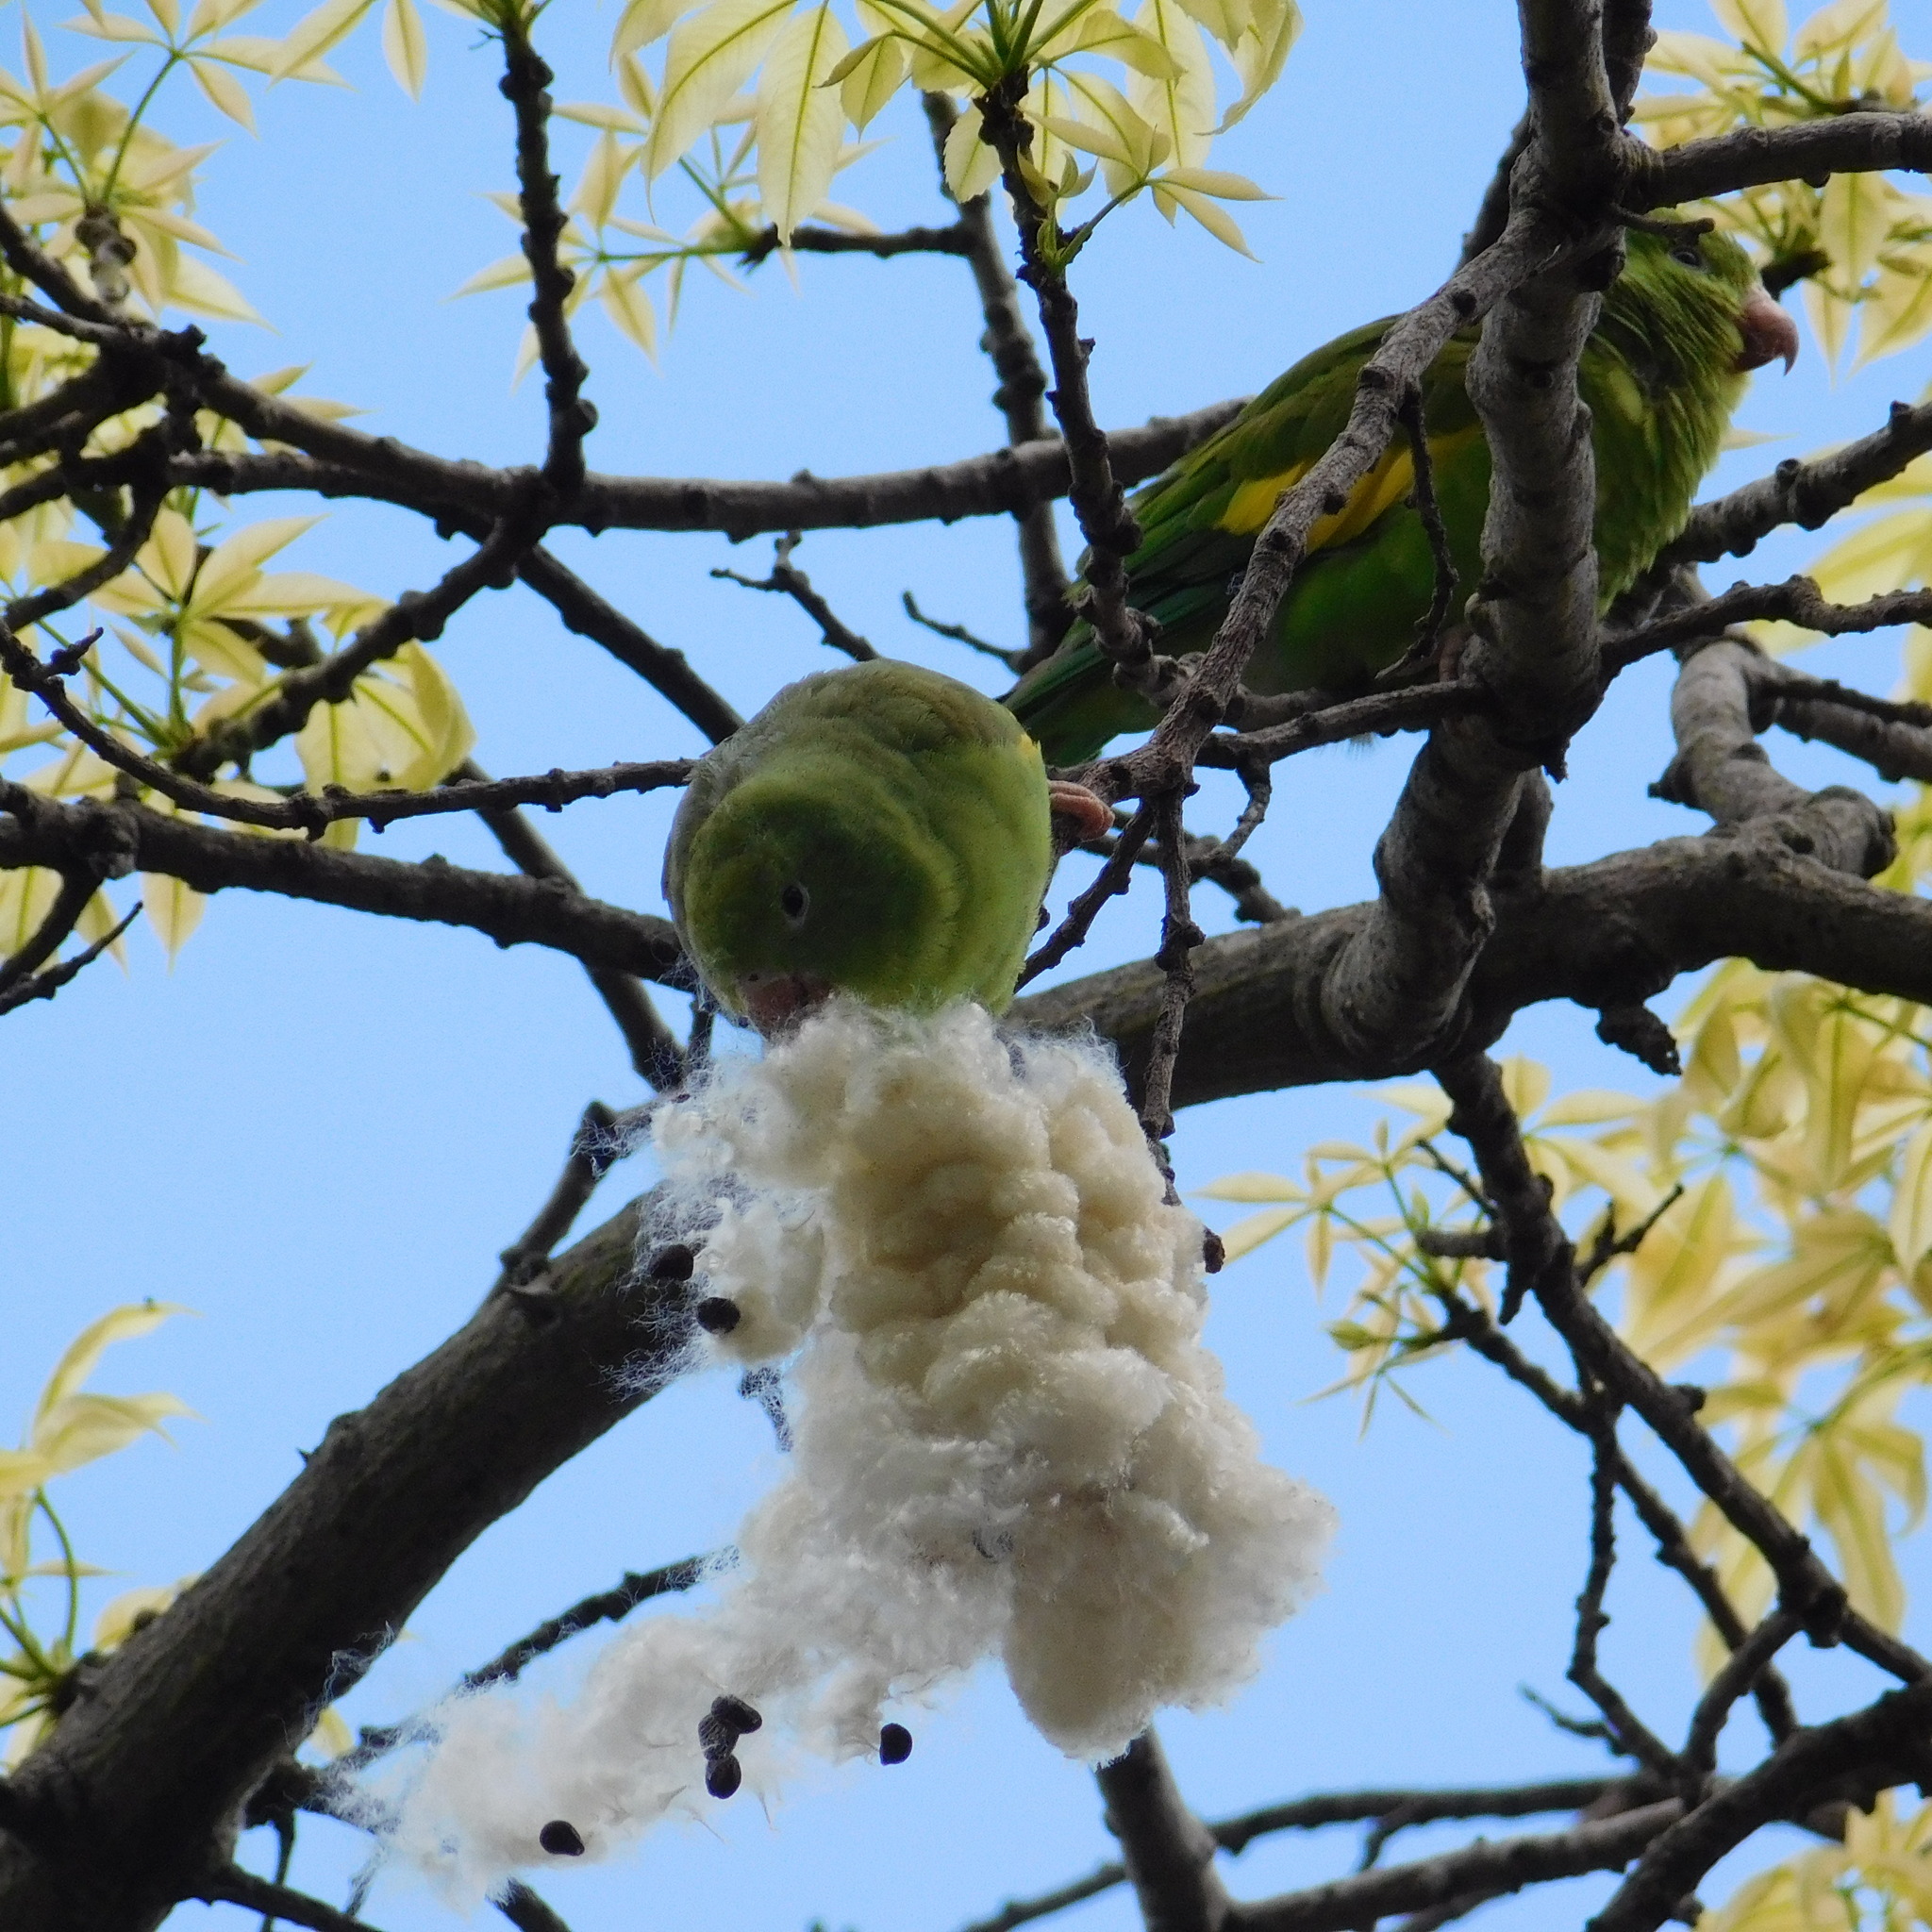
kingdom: Animalia
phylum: Chordata
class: Aves
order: Psittaciformes
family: Psittacidae
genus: Brotogeris
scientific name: Brotogeris chiriri
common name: Yellow-chevroned parakeet
